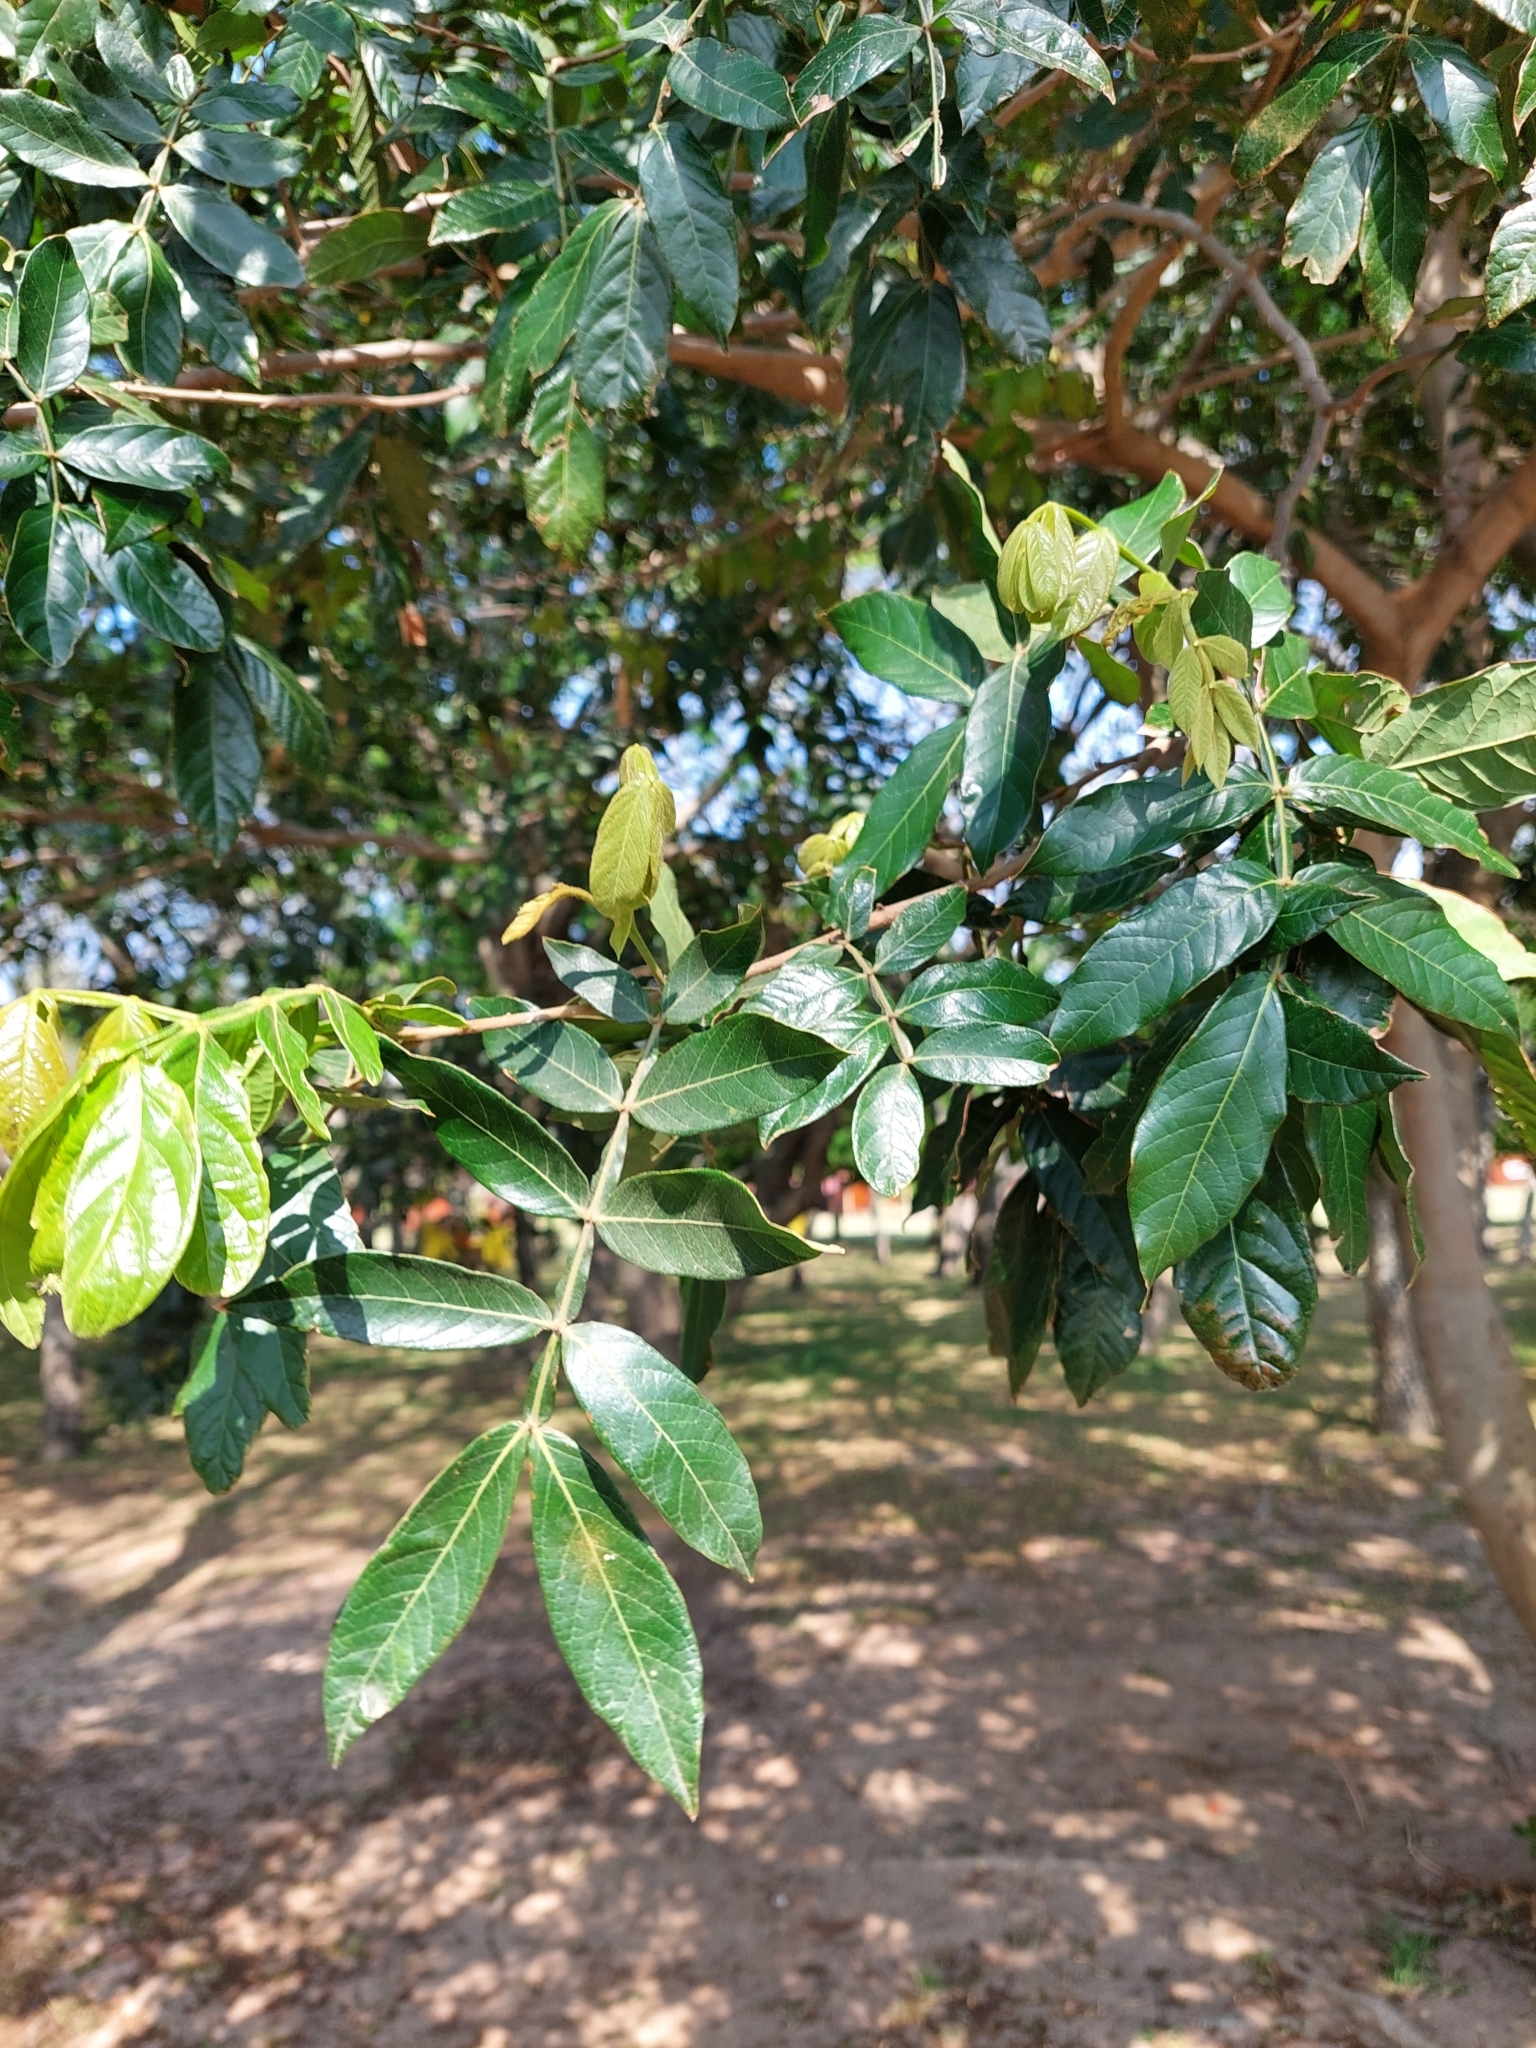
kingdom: Plantae
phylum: Tracheophyta
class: Magnoliopsida
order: Fabales
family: Fabaceae
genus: Inga
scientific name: Inga uraguensis
